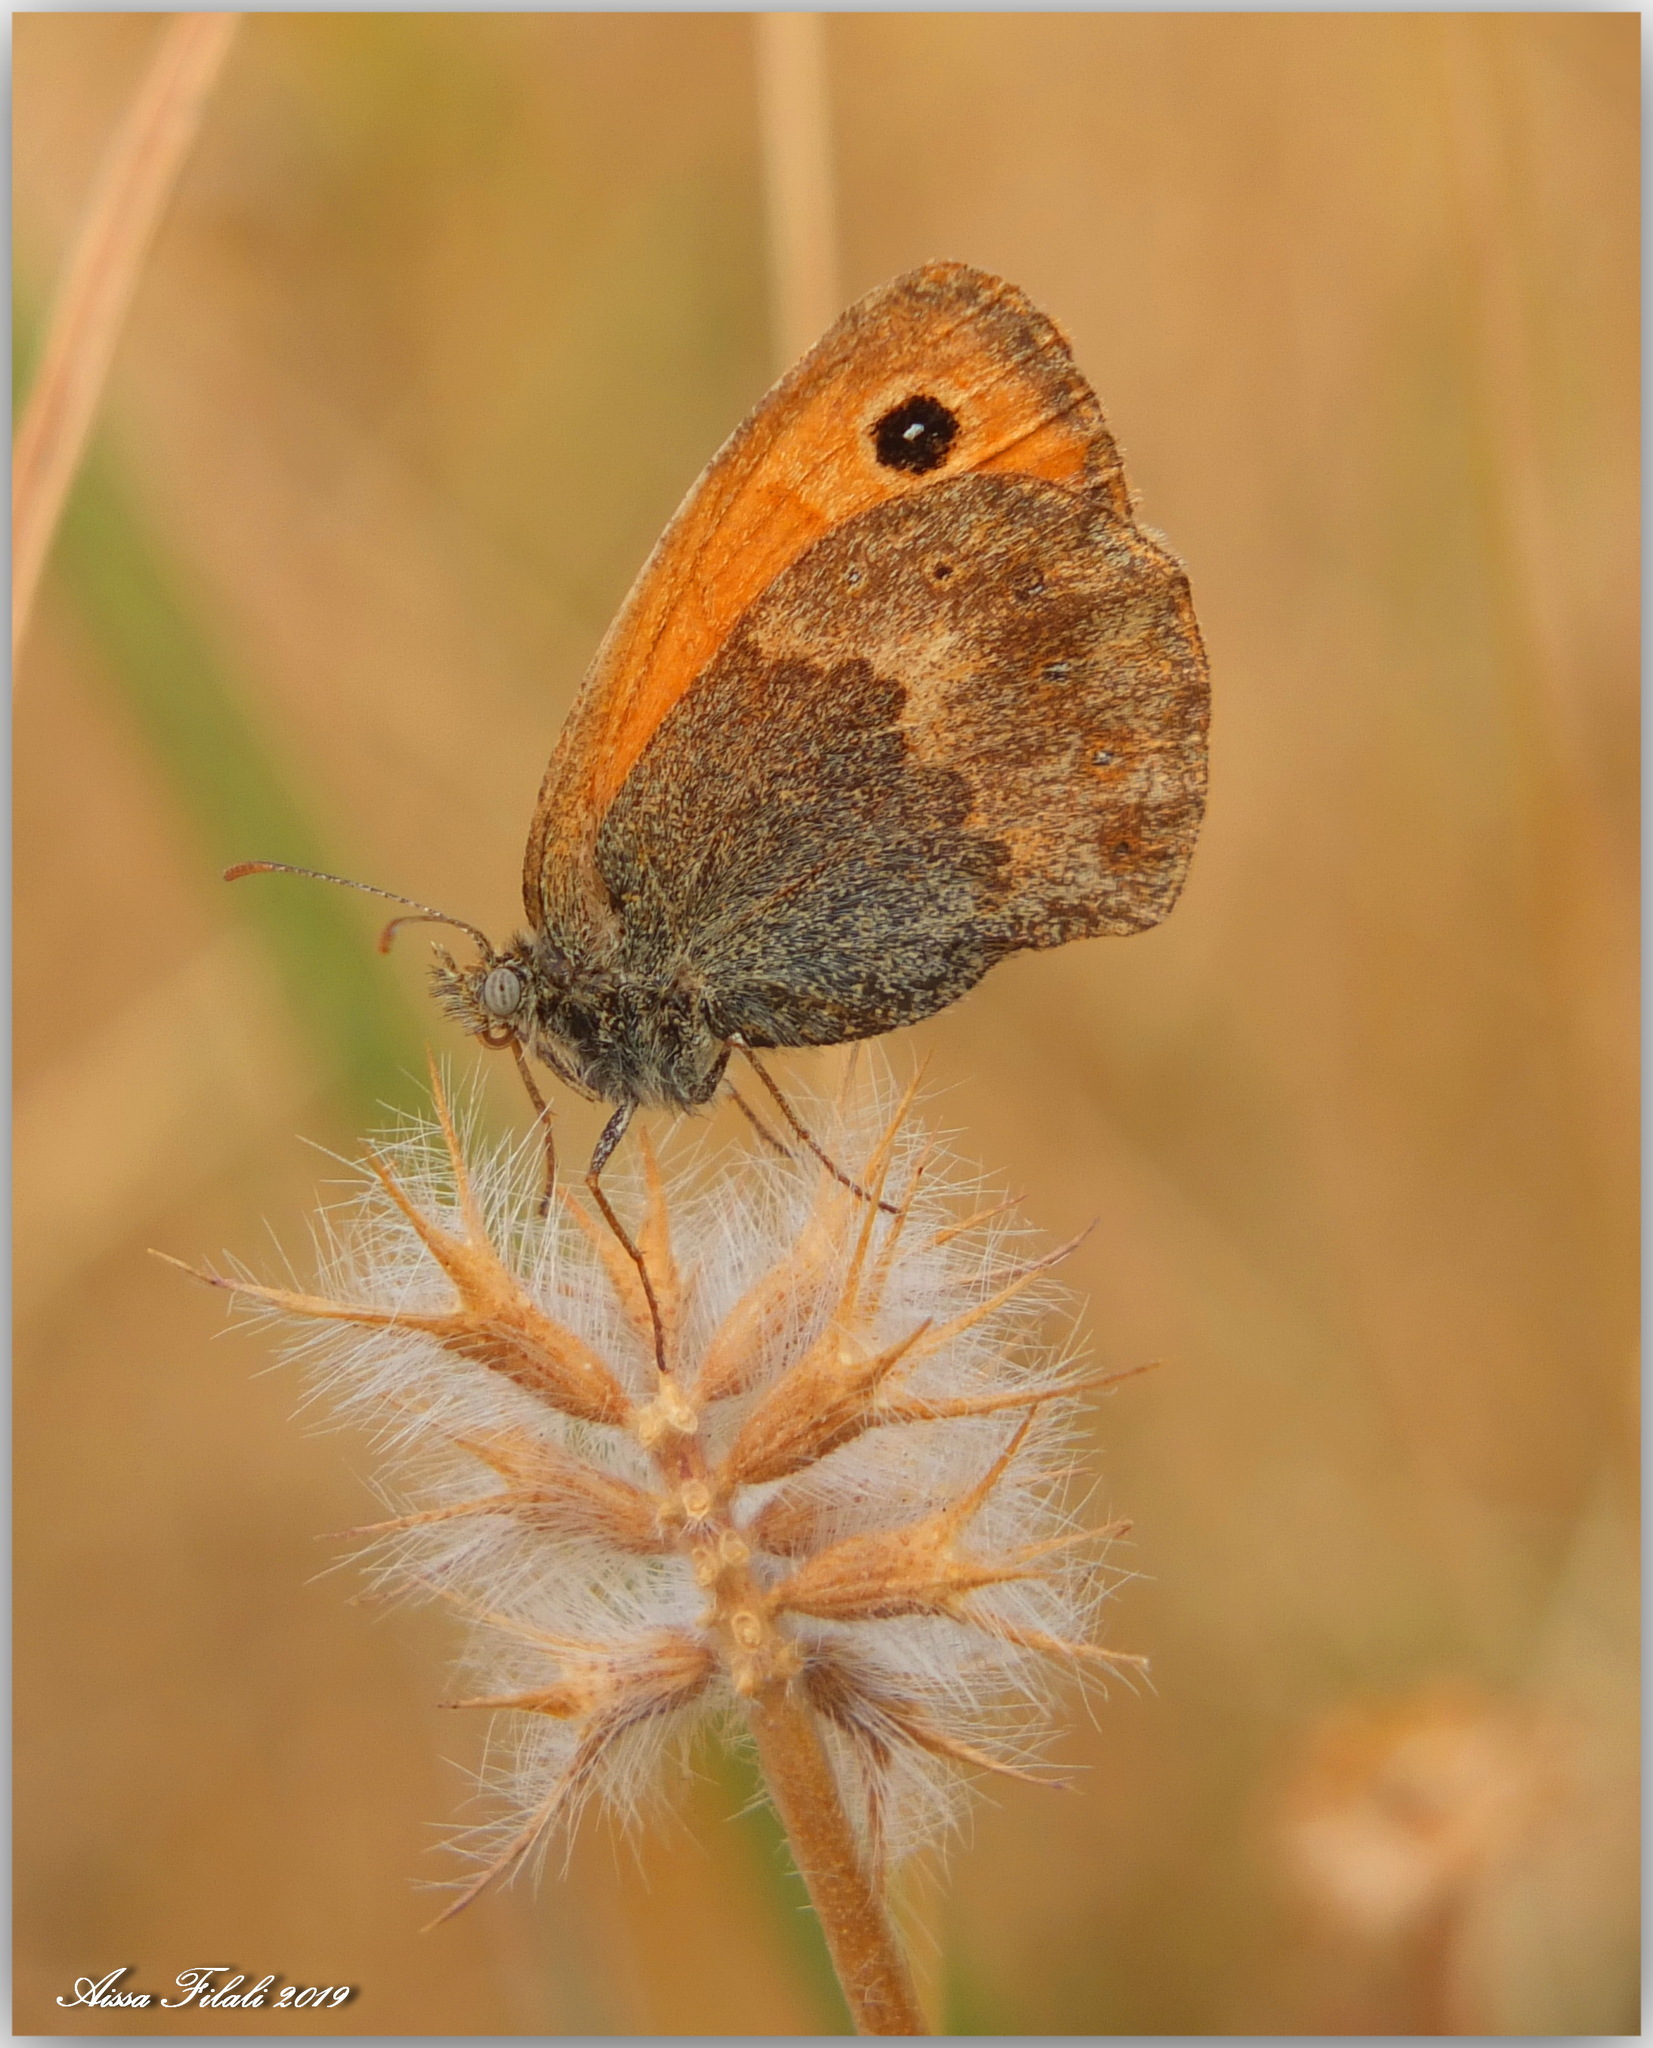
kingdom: Animalia
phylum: Arthropoda
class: Insecta
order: Lepidoptera
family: Nymphalidae
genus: Coenonympha
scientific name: Coenonympha pamphilus
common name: Small heath
